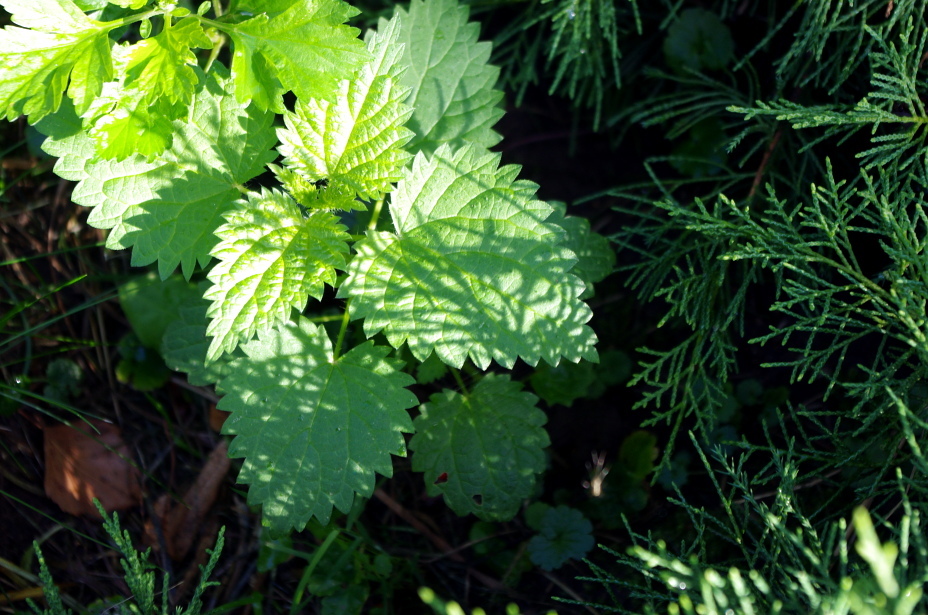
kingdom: Plantae
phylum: Tracheophyta
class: Magnoliopsida
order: Rosales
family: Urticaceae
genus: Urtica
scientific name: Urtica dioica
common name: Common nettle
